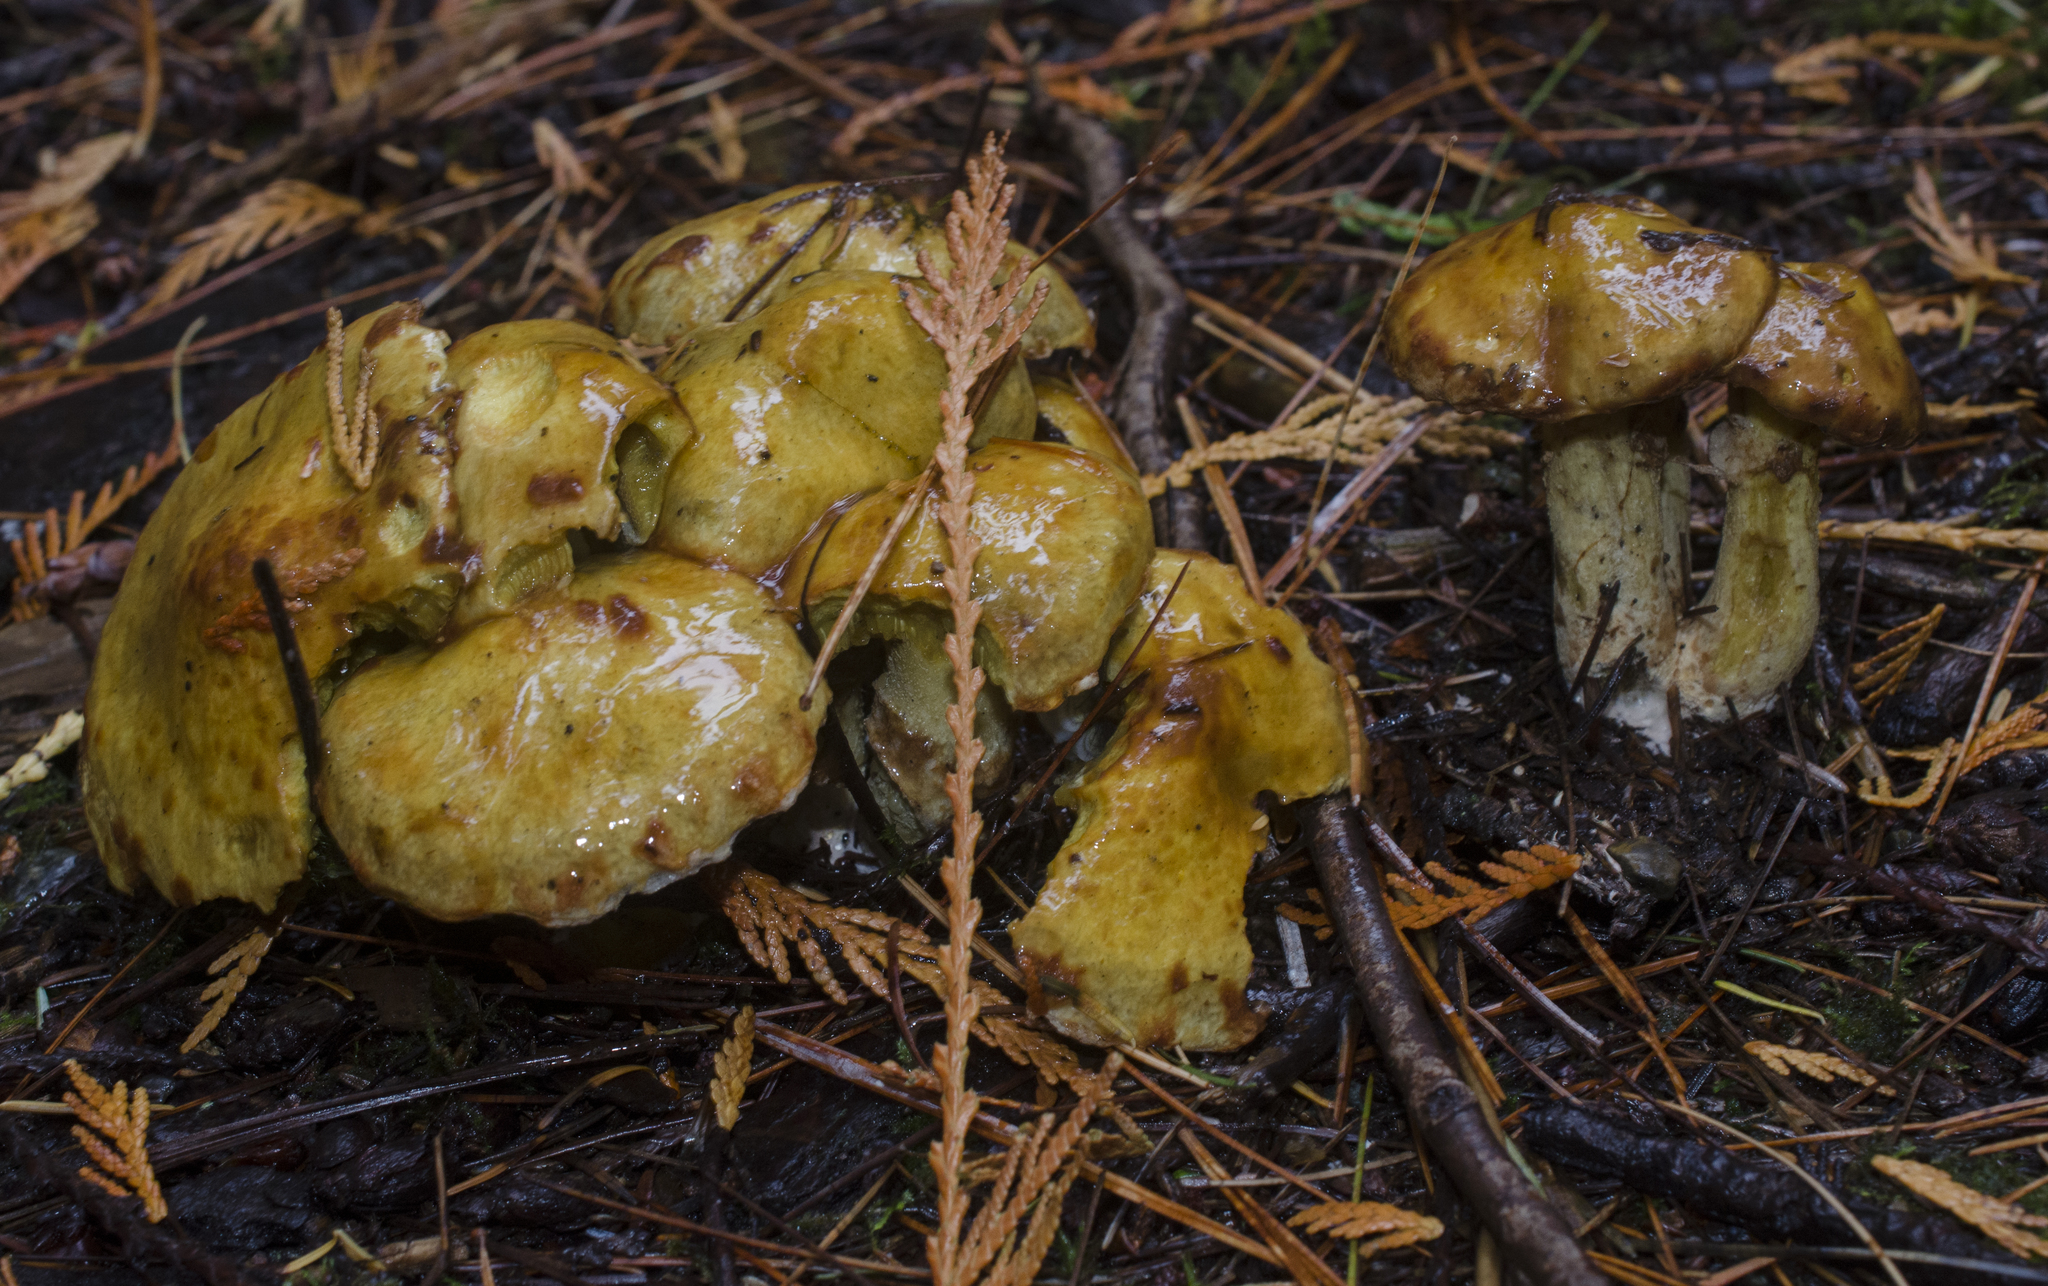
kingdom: Fungi
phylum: Basidiomycota
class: Agaricomycetes
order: Boletales
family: Suillaceae
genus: Suillus
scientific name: Suillus americanus
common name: Chicken fat mushroom
